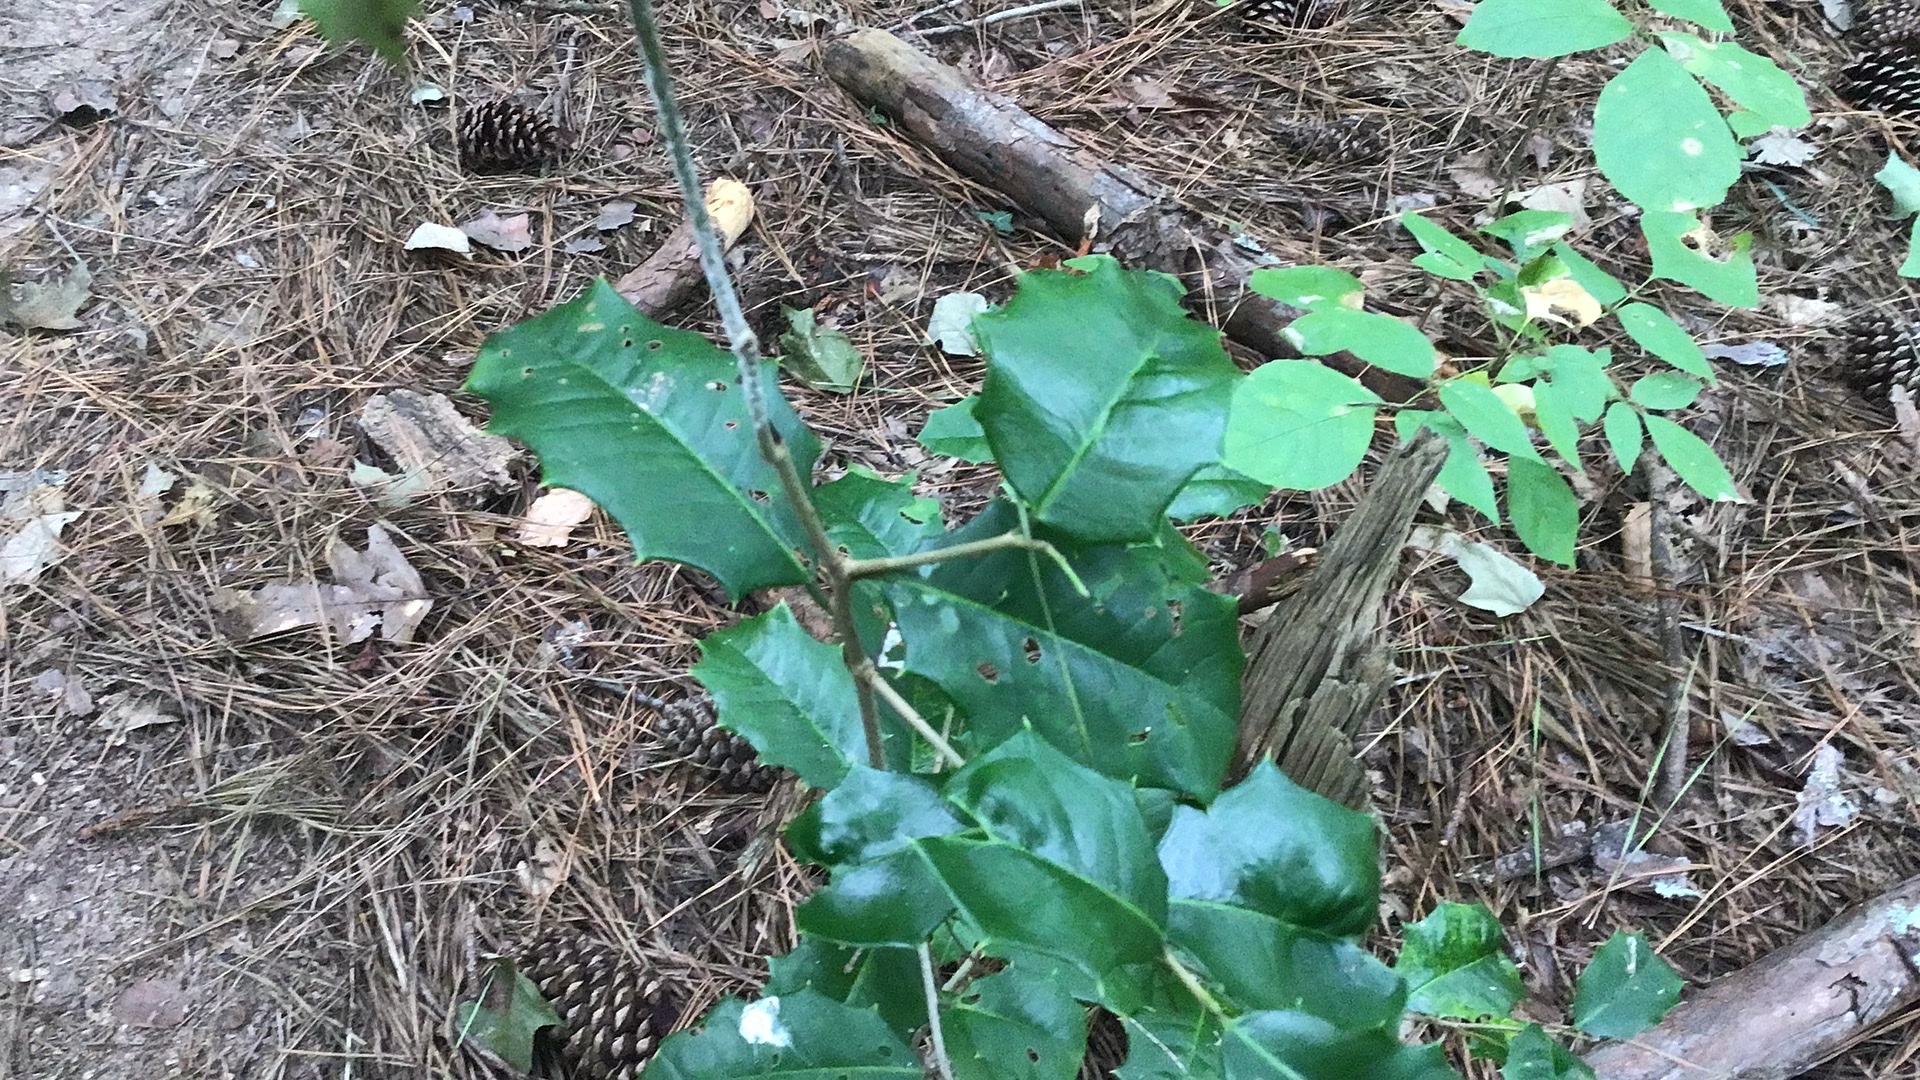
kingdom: Plantae
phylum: Tracheophyta
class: Magnoliopsida
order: Aquifoliales
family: Aquifoliaceae
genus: Ilex
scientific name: Ilex opaca
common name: American holly
